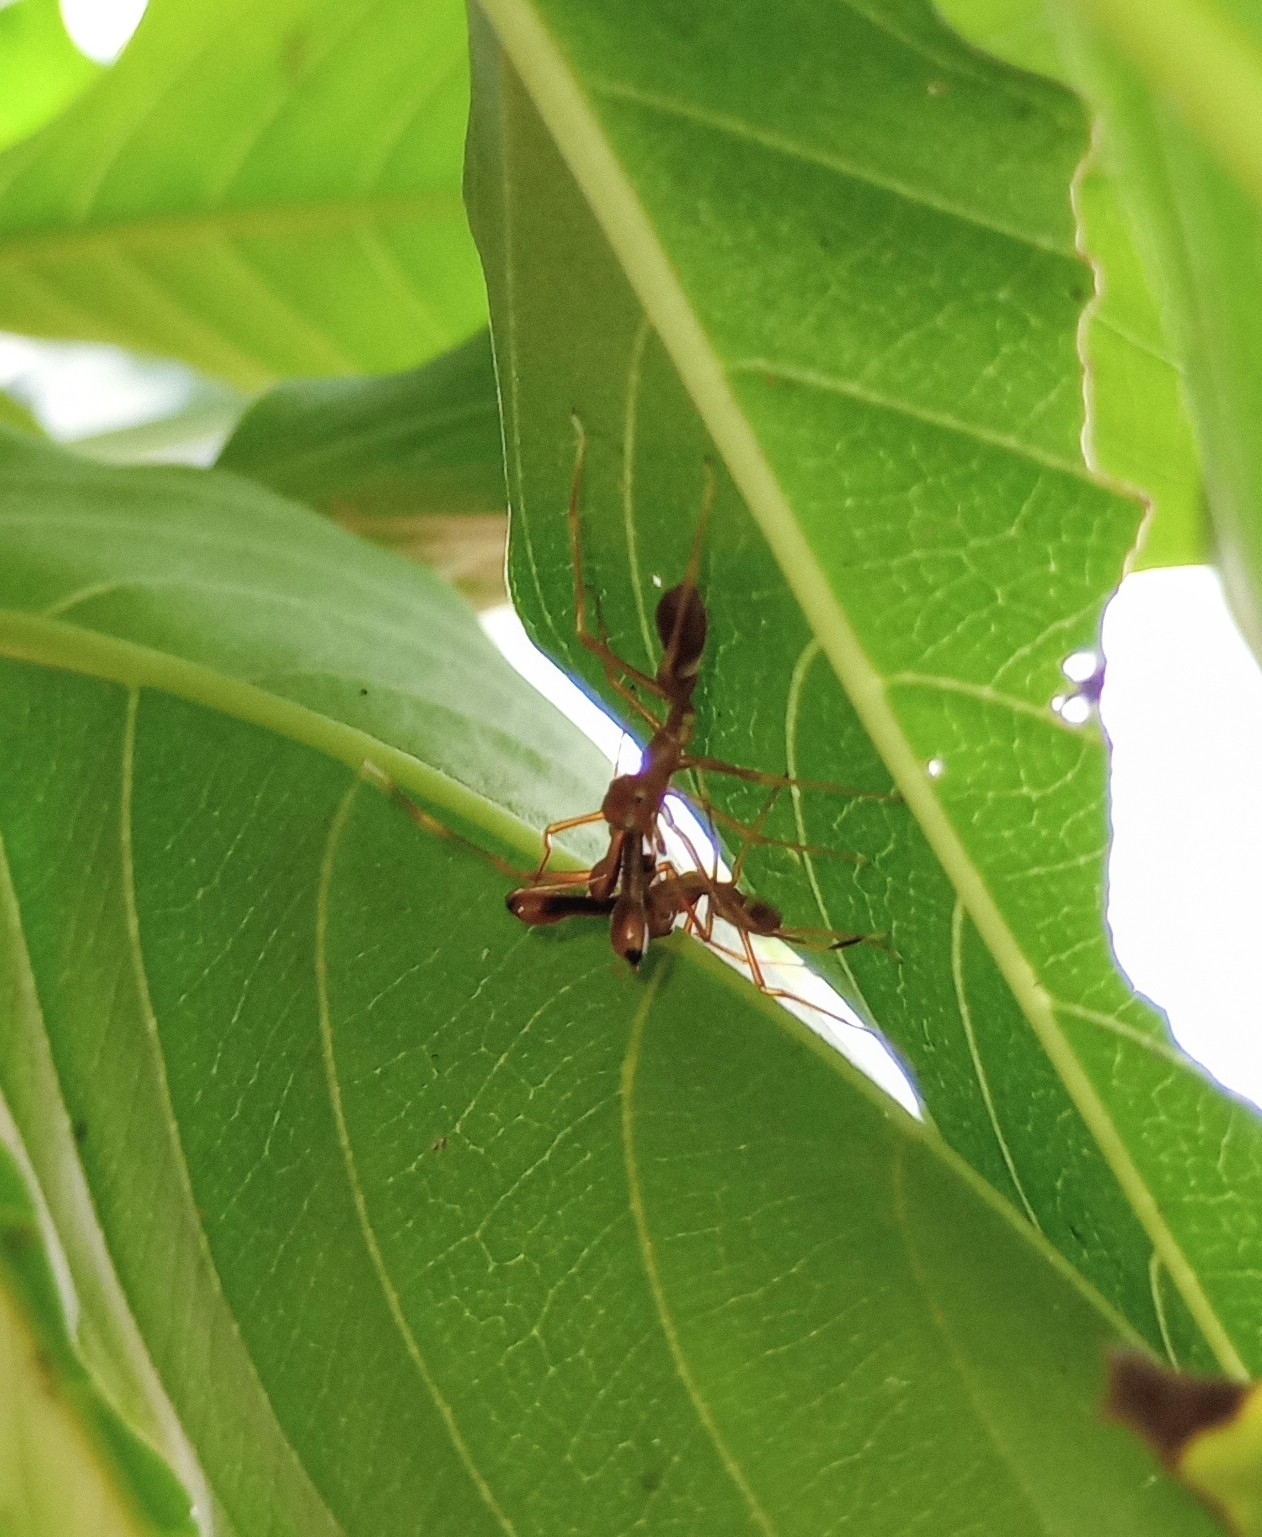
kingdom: Animalia
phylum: Arthropoda
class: Arachnida
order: Araneae
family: Salticidae
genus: Myrmaplata
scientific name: Myrmaplata plataleoides
